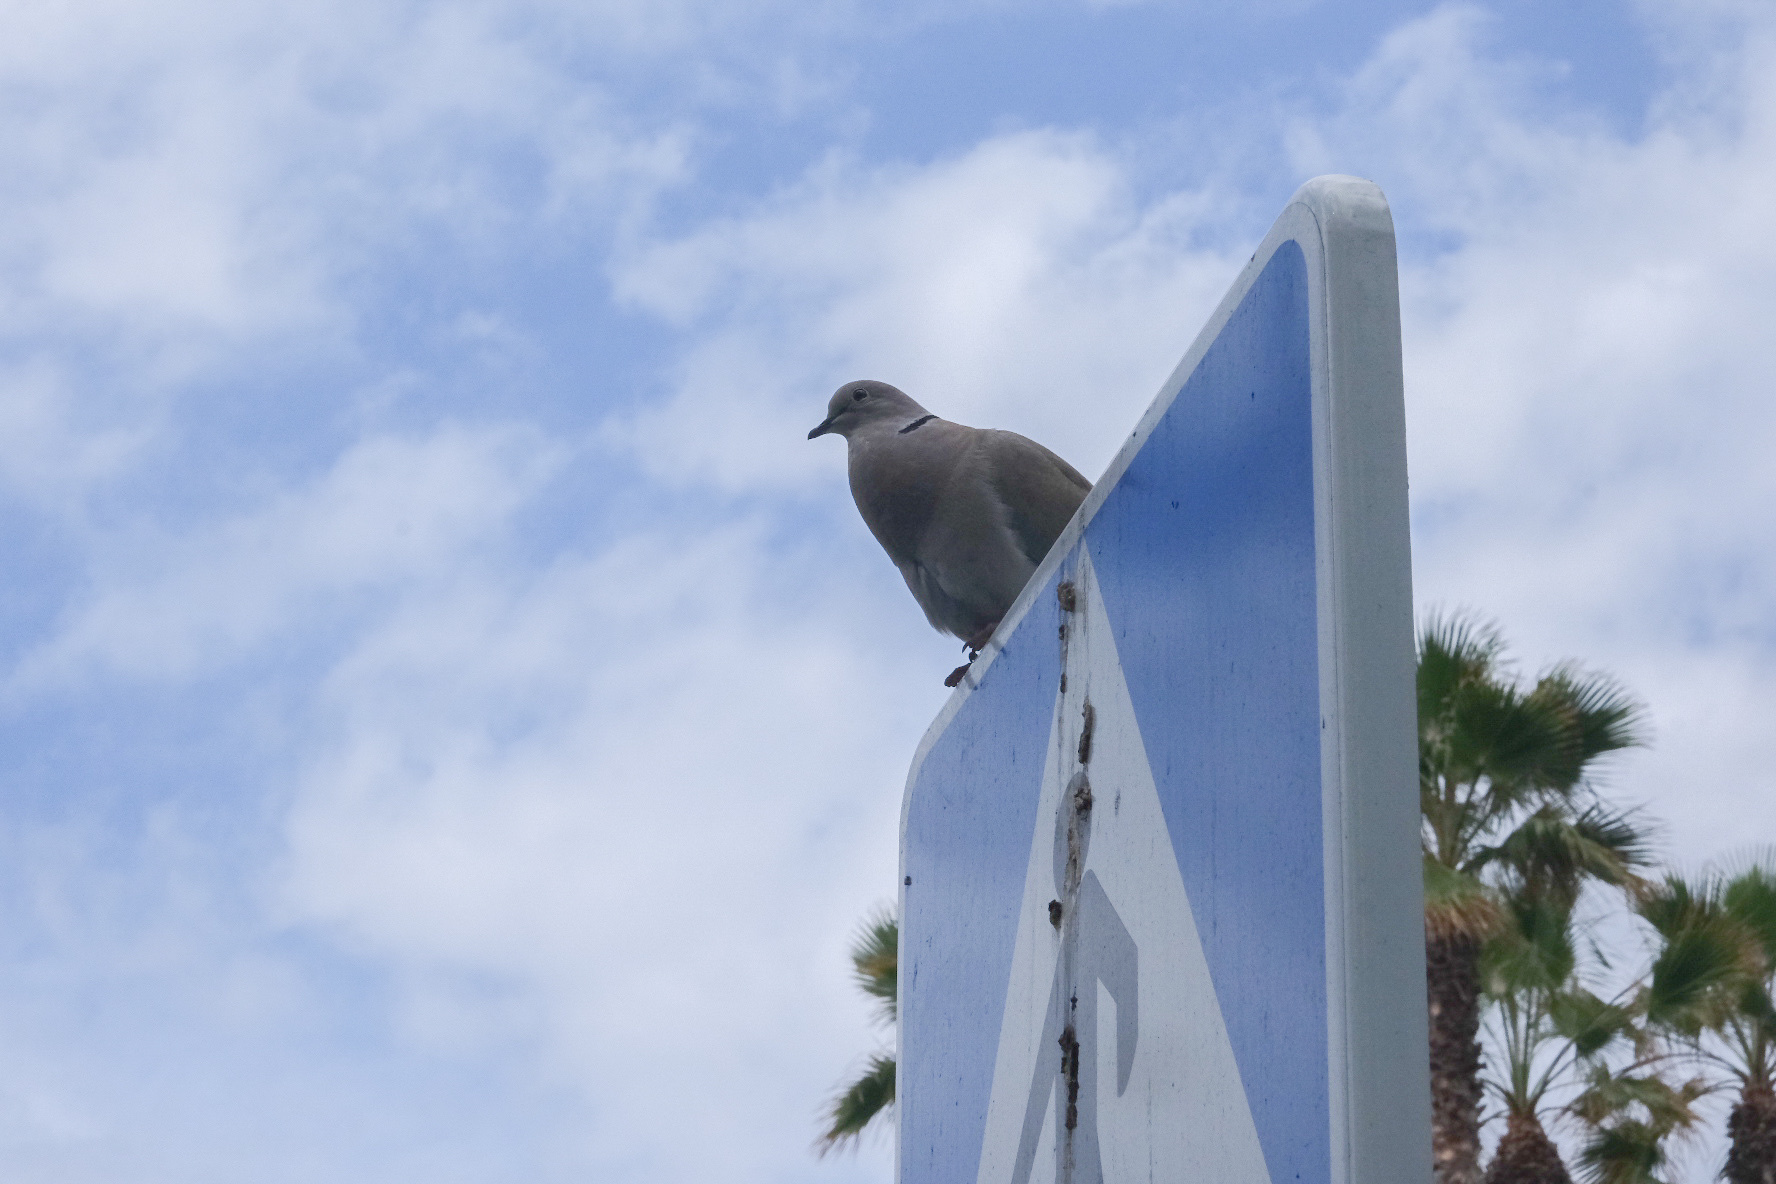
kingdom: Animalia
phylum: Chordata
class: Aves
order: Columbiformes
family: Columbidae
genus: Streptopelia
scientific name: Streptopelia decaocto
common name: Eurasian collared dove
